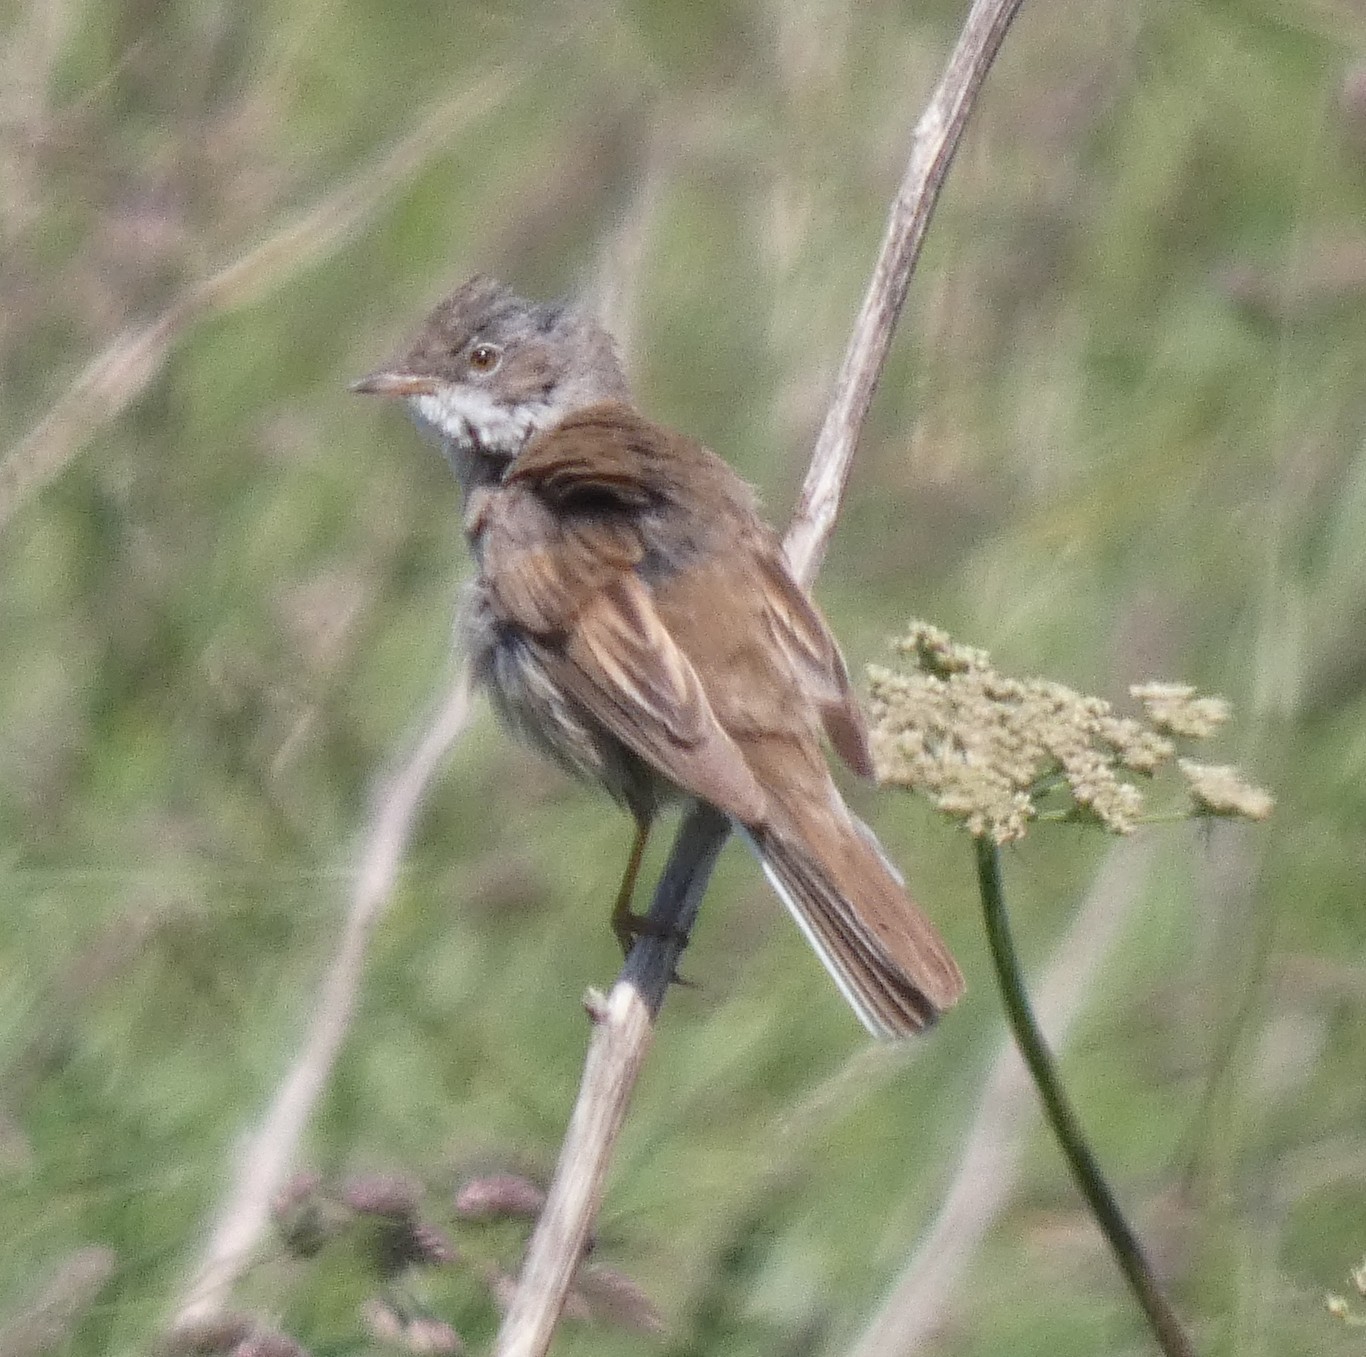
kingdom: Animalia
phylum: Chordata
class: Aves
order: Passeriformes
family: Sylviidae
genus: Sylvia
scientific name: Sylvia communis
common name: Common whitethroat
